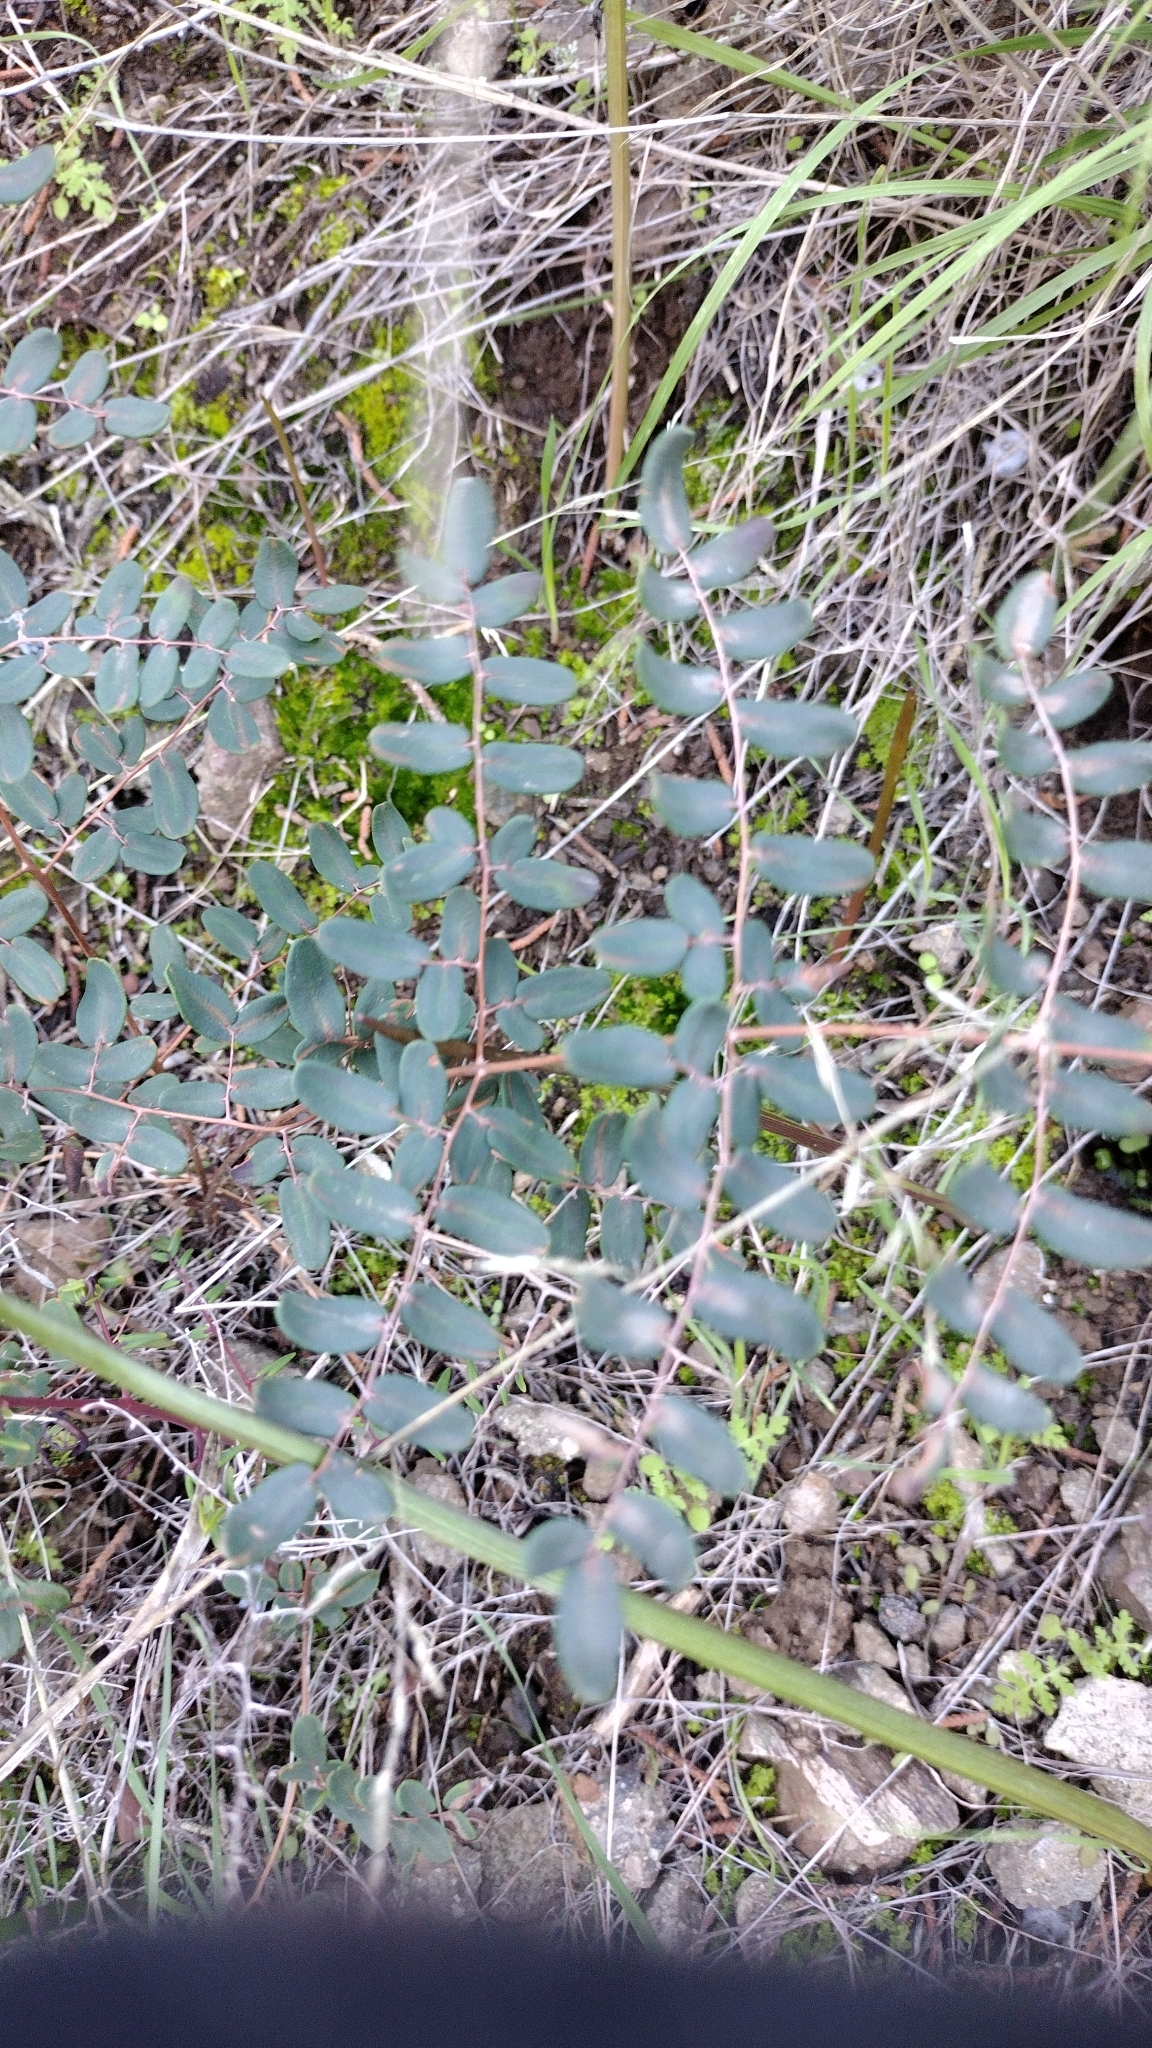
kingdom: Plantae
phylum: Tracheophyta
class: Polypodiopsida
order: Polypodiales
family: Pteridaceae
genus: Pellaea
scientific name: Pellaea andromedifolia
